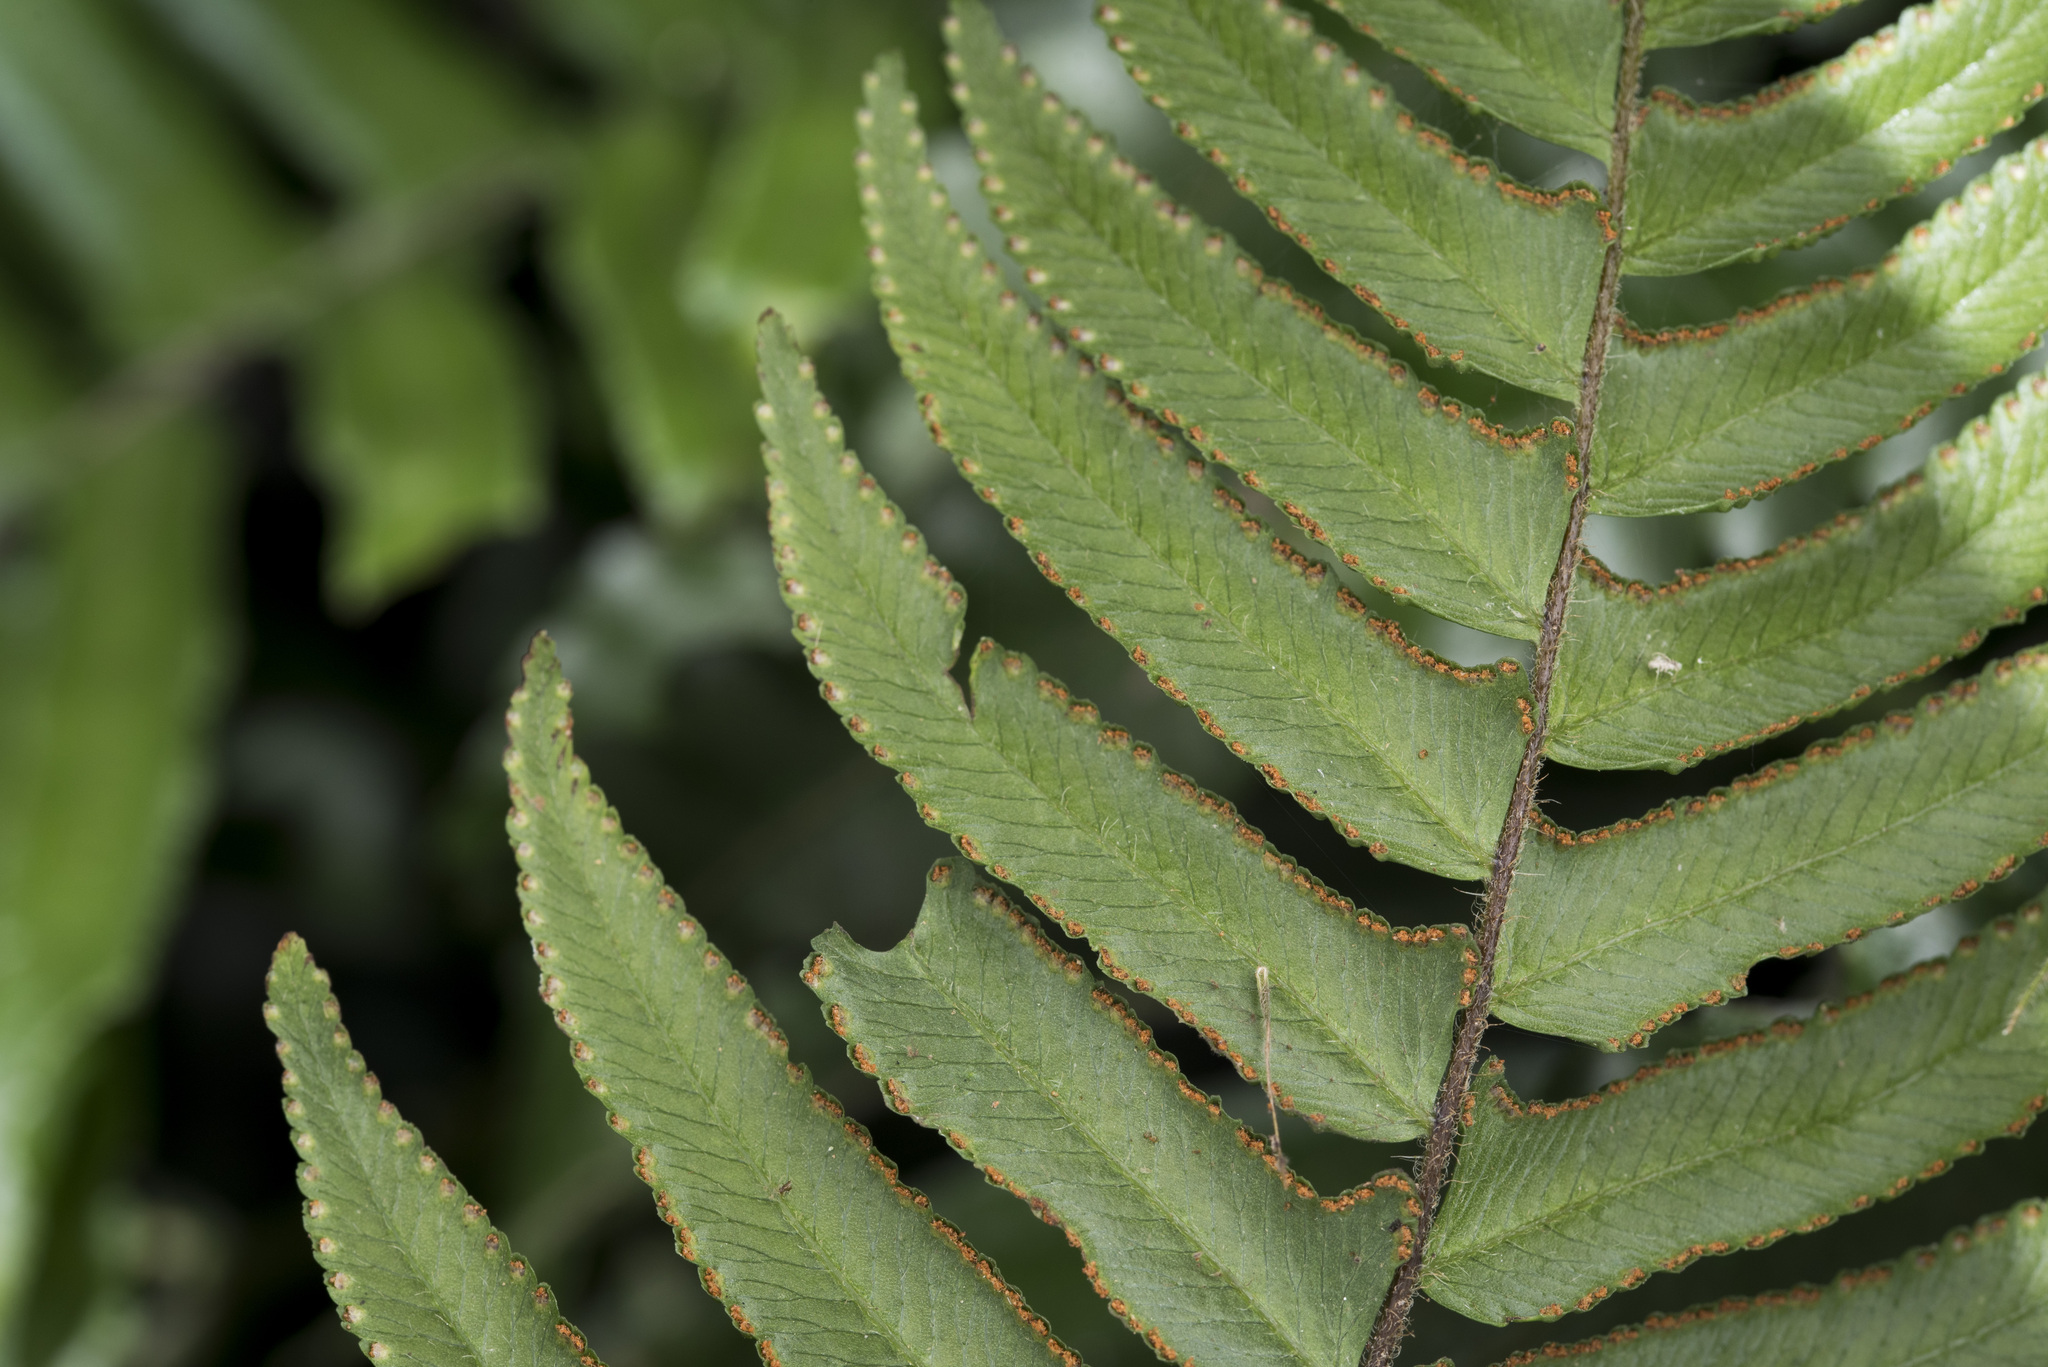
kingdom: Plantae
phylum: Tracheophyta
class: Polypodiopsida
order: Polypodiales
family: Dennstaedtiaceae
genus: Microlepia
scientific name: Microlepia hookeriana
